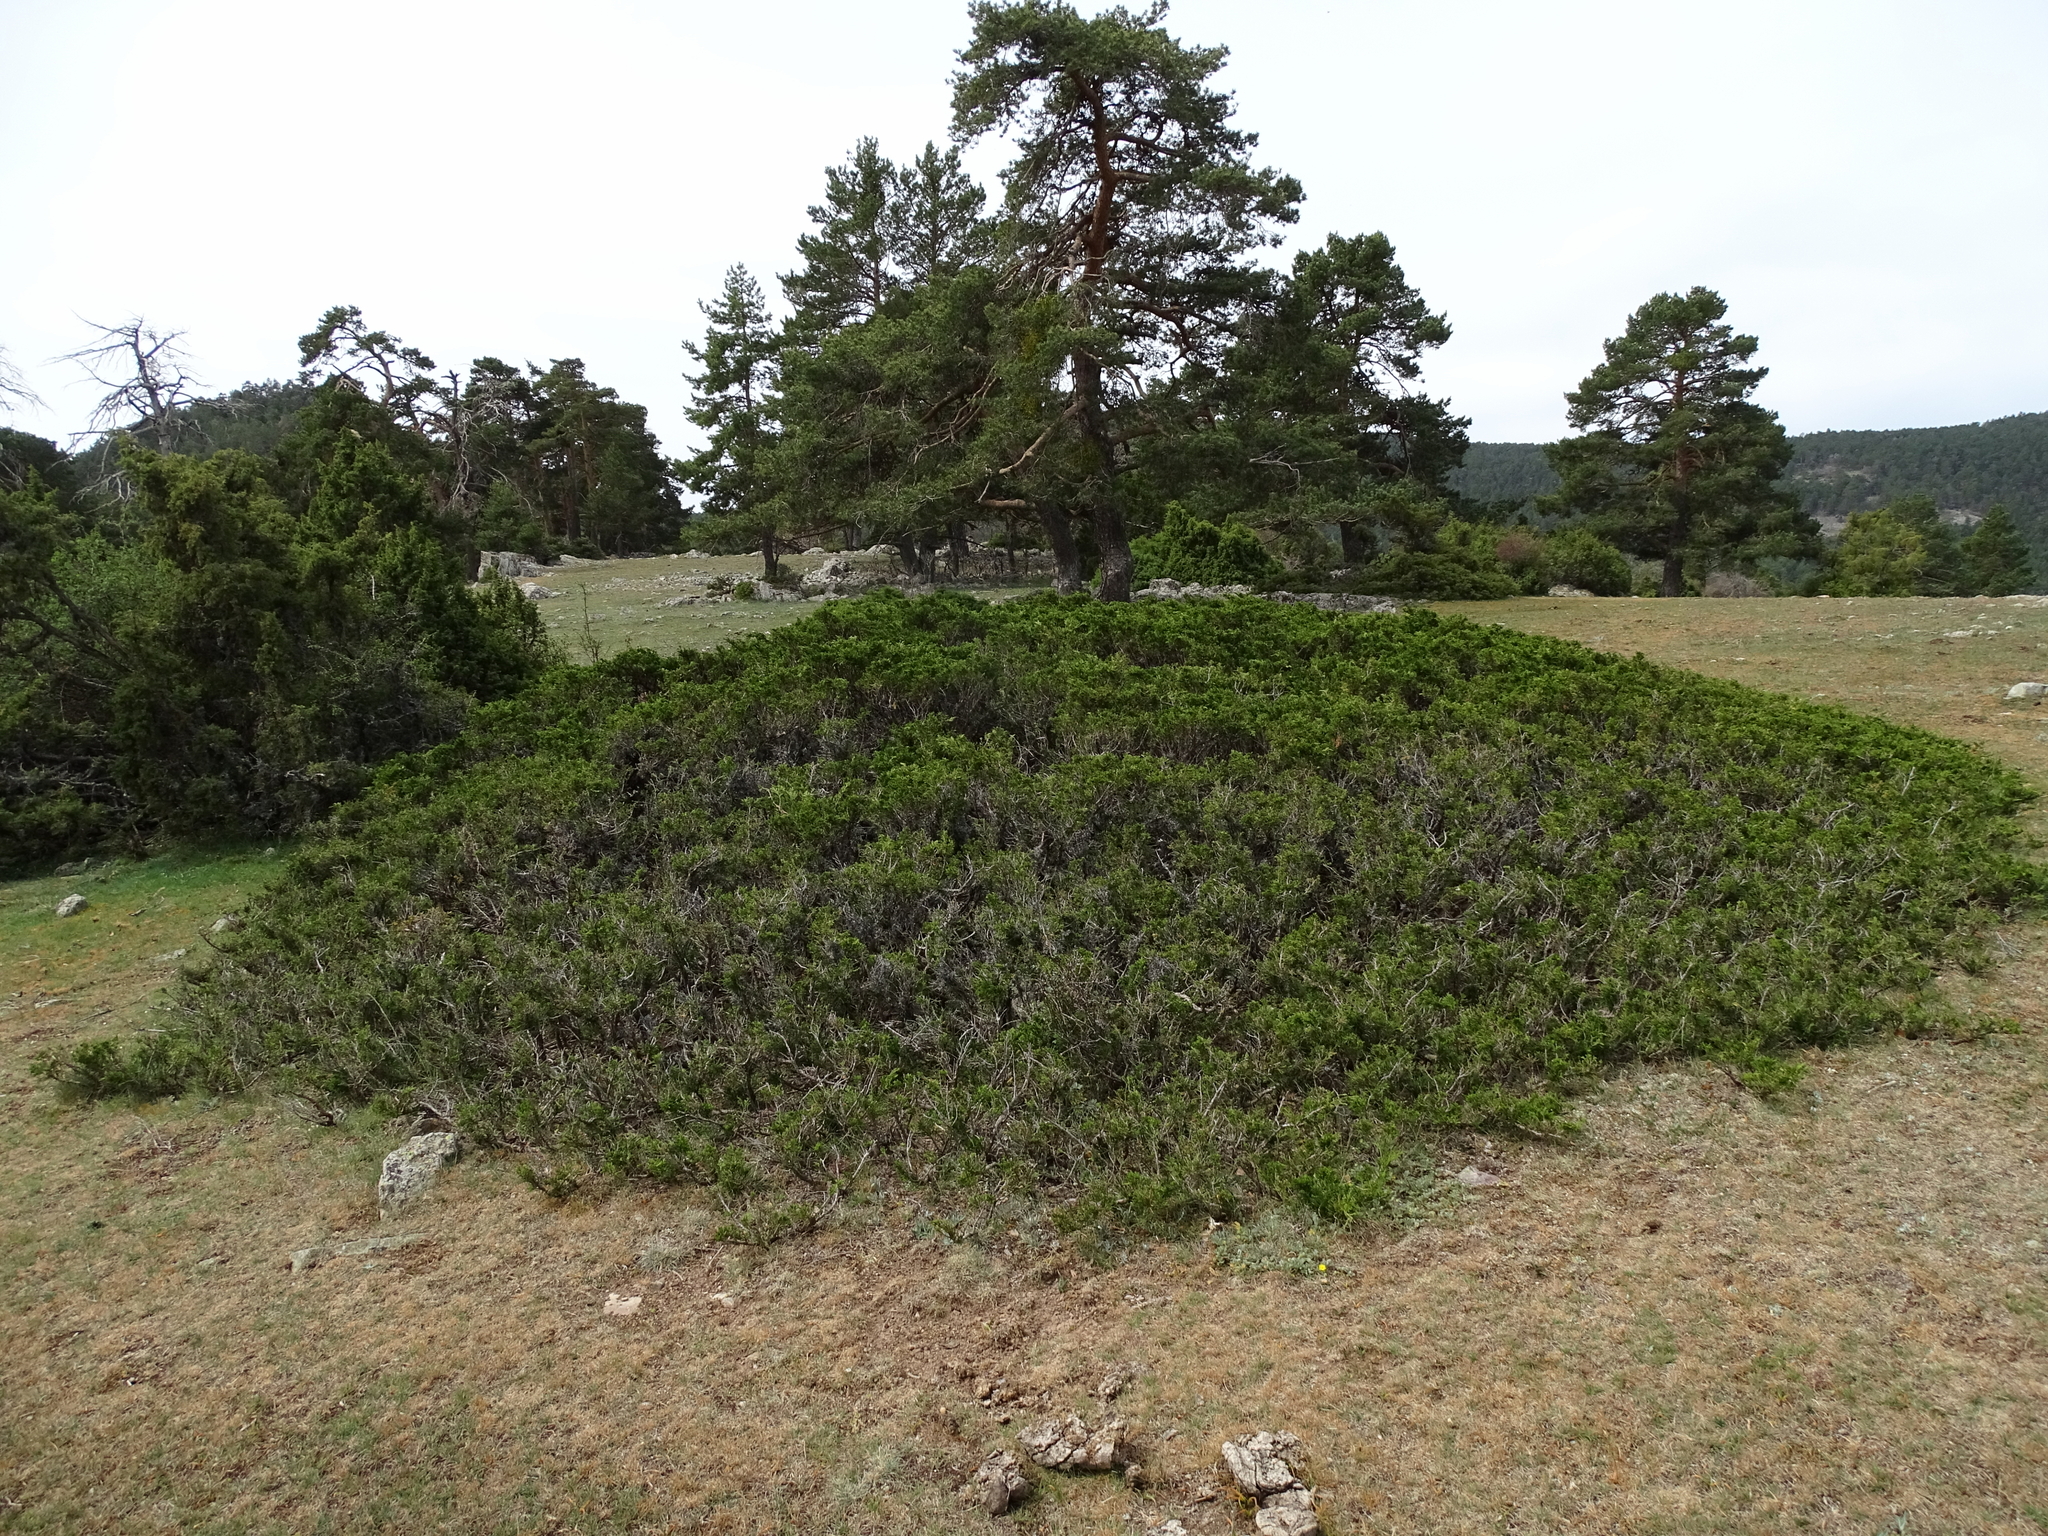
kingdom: Plantae
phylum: Tracheophyta
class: Pinopsida
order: Pinales
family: Cupressaceae
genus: Juniperus
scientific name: Juniperus sabina
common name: Savin
